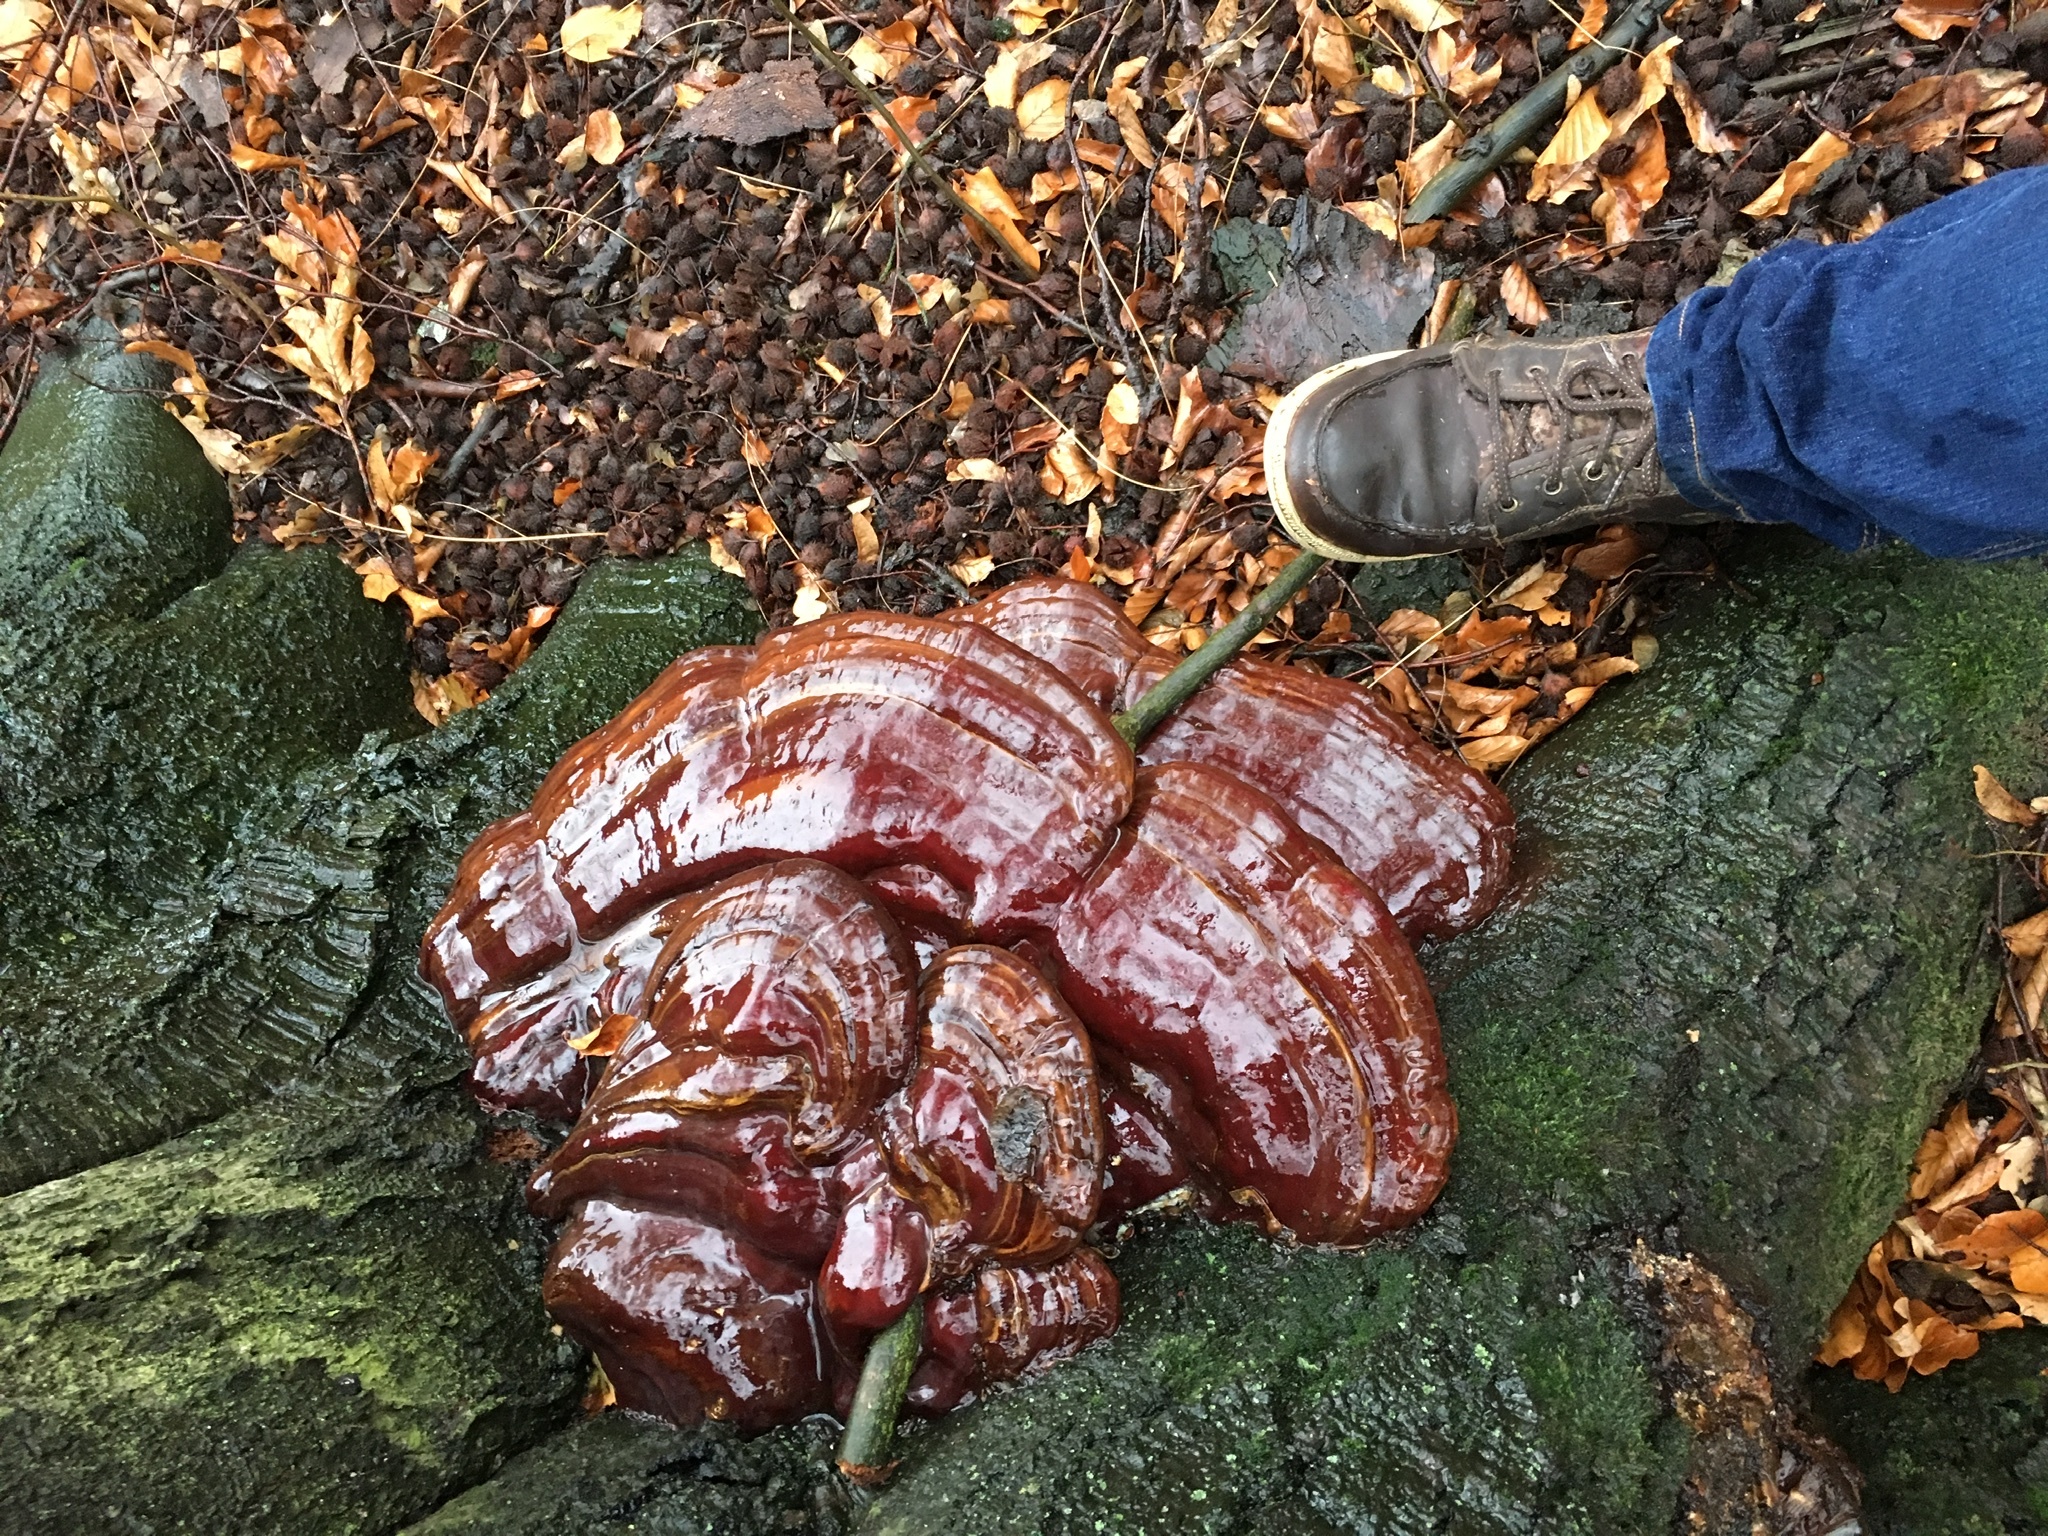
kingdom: Fungi
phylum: Basidiomycota
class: Agaricomycetes
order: Polyporales
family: Polyporaceae
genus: Ganoderma
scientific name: Ganoderma resinaceum
